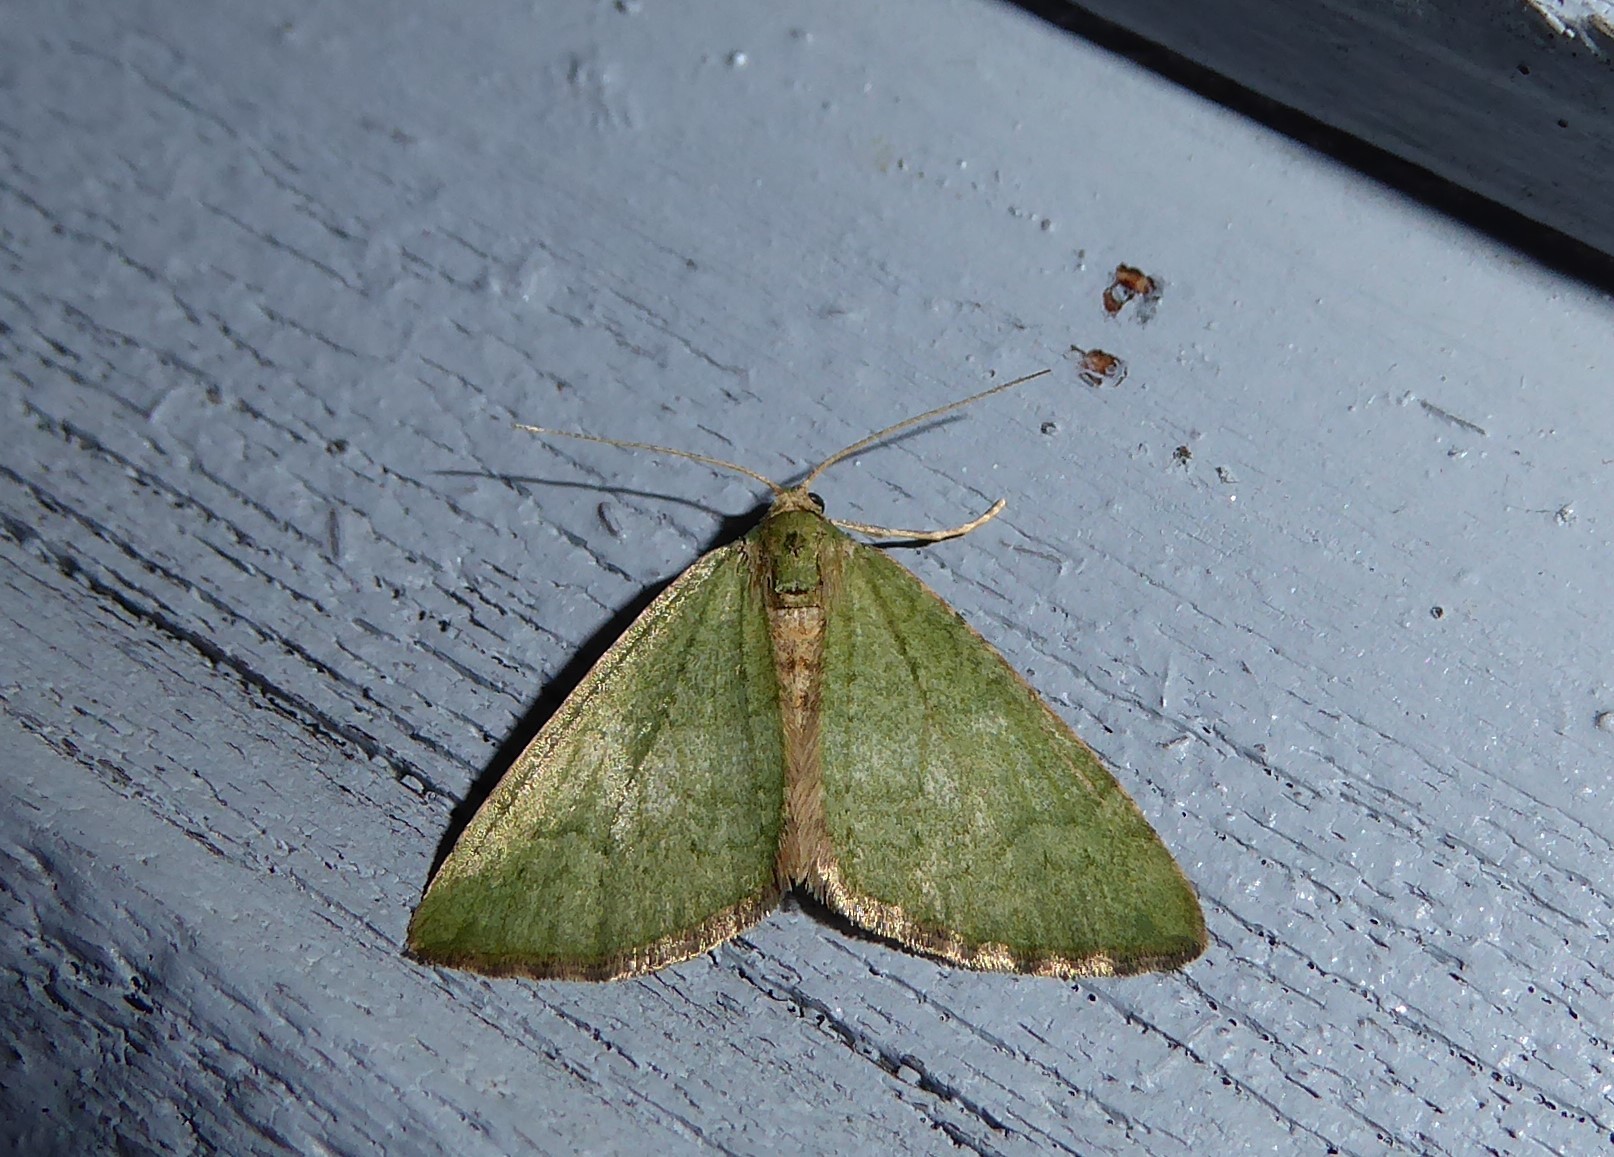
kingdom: Animalia
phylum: Arthropoda
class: Insecta
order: Lepidoptera
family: Geometridae
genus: Epyaxa
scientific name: Epyaxa rosearia
